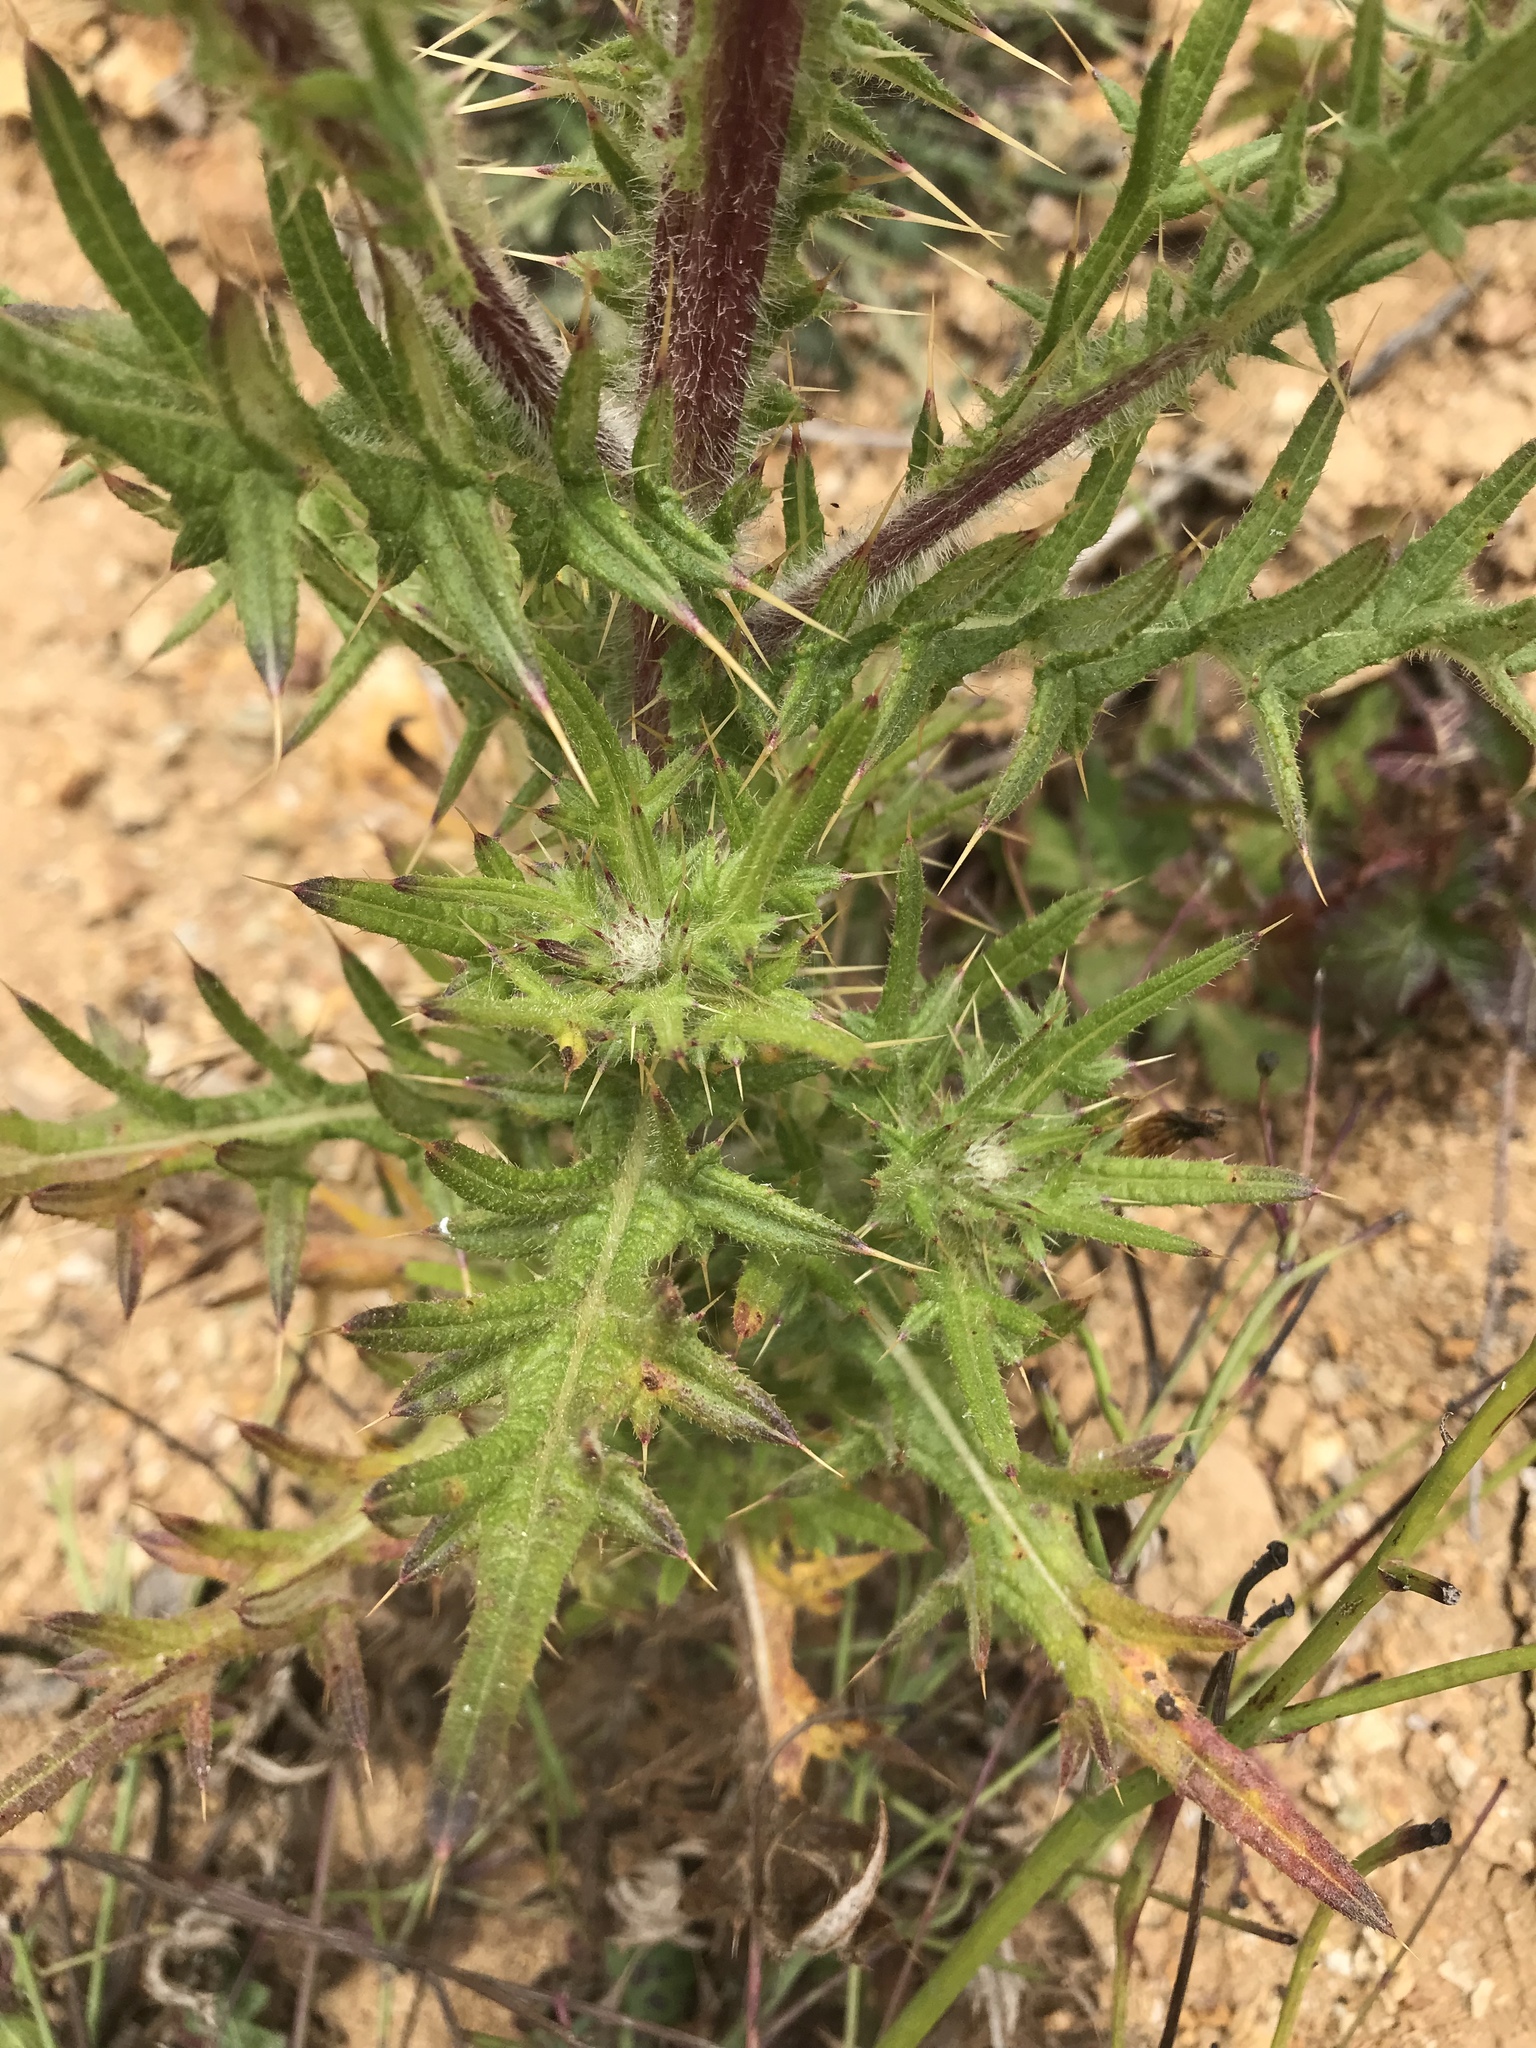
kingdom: Plantae
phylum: Tracheophyta
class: Magnoliopsida
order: Asterales
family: Asteraceae
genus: Cirsium
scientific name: Cirsium vulgare
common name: Bull thistle
